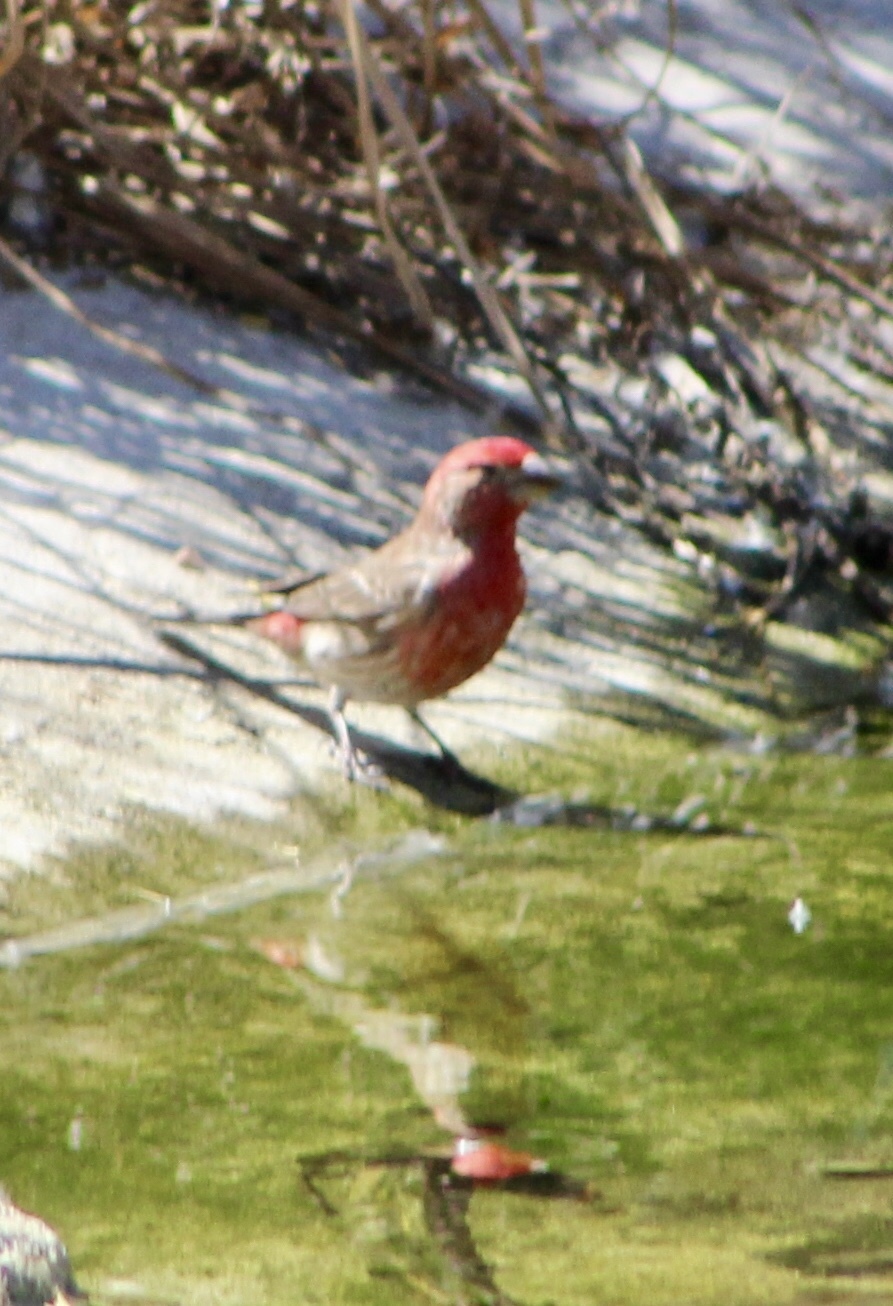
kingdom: Animalia
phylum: Chordata
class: Aves
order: Passeriformes
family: Fringillidae
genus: Haemorhous
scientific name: Haemorhous mexicanus
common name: House finch
